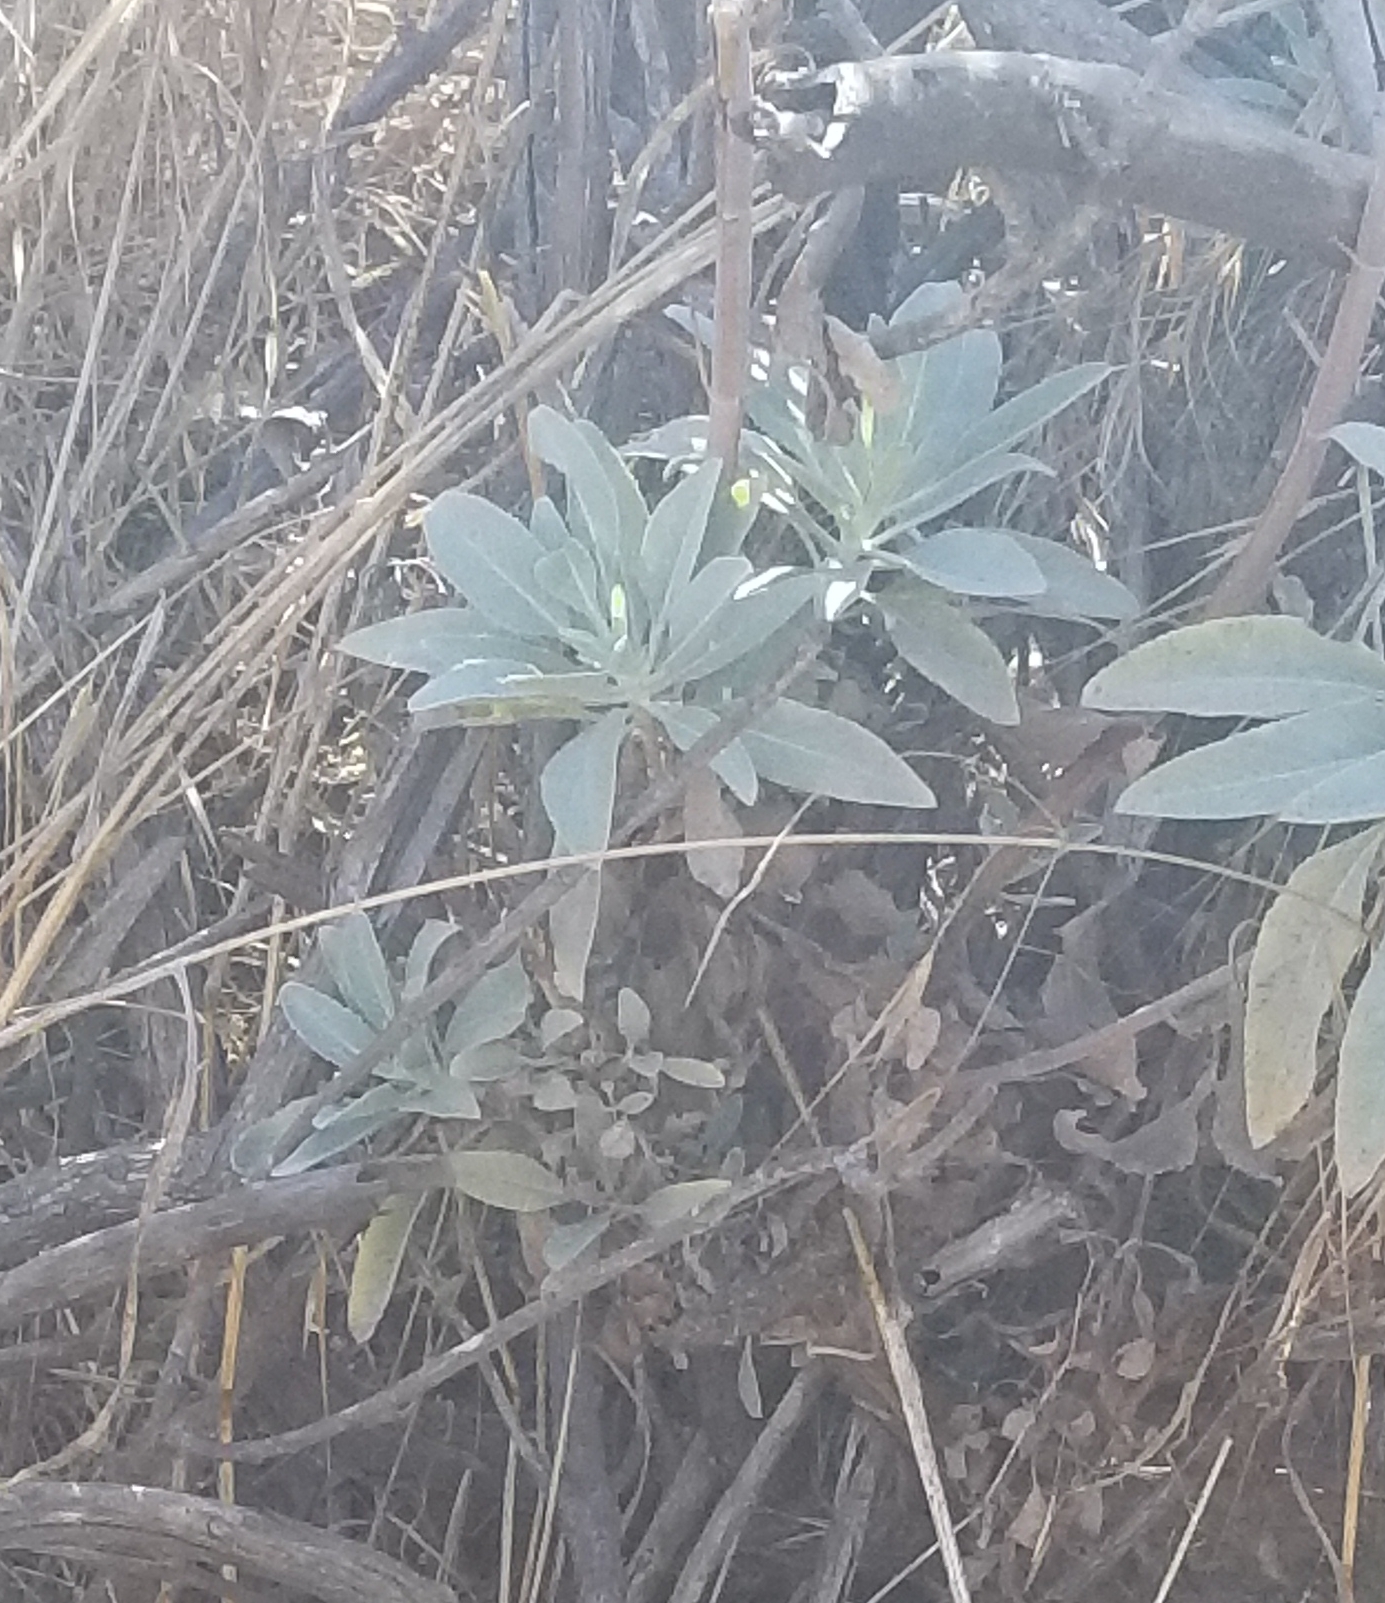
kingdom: Plantae
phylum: Tracheophyta
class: Magnoliopsida
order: Lamiales
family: Lamiaceae
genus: Salvia
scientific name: Salvia apiana
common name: White sage
